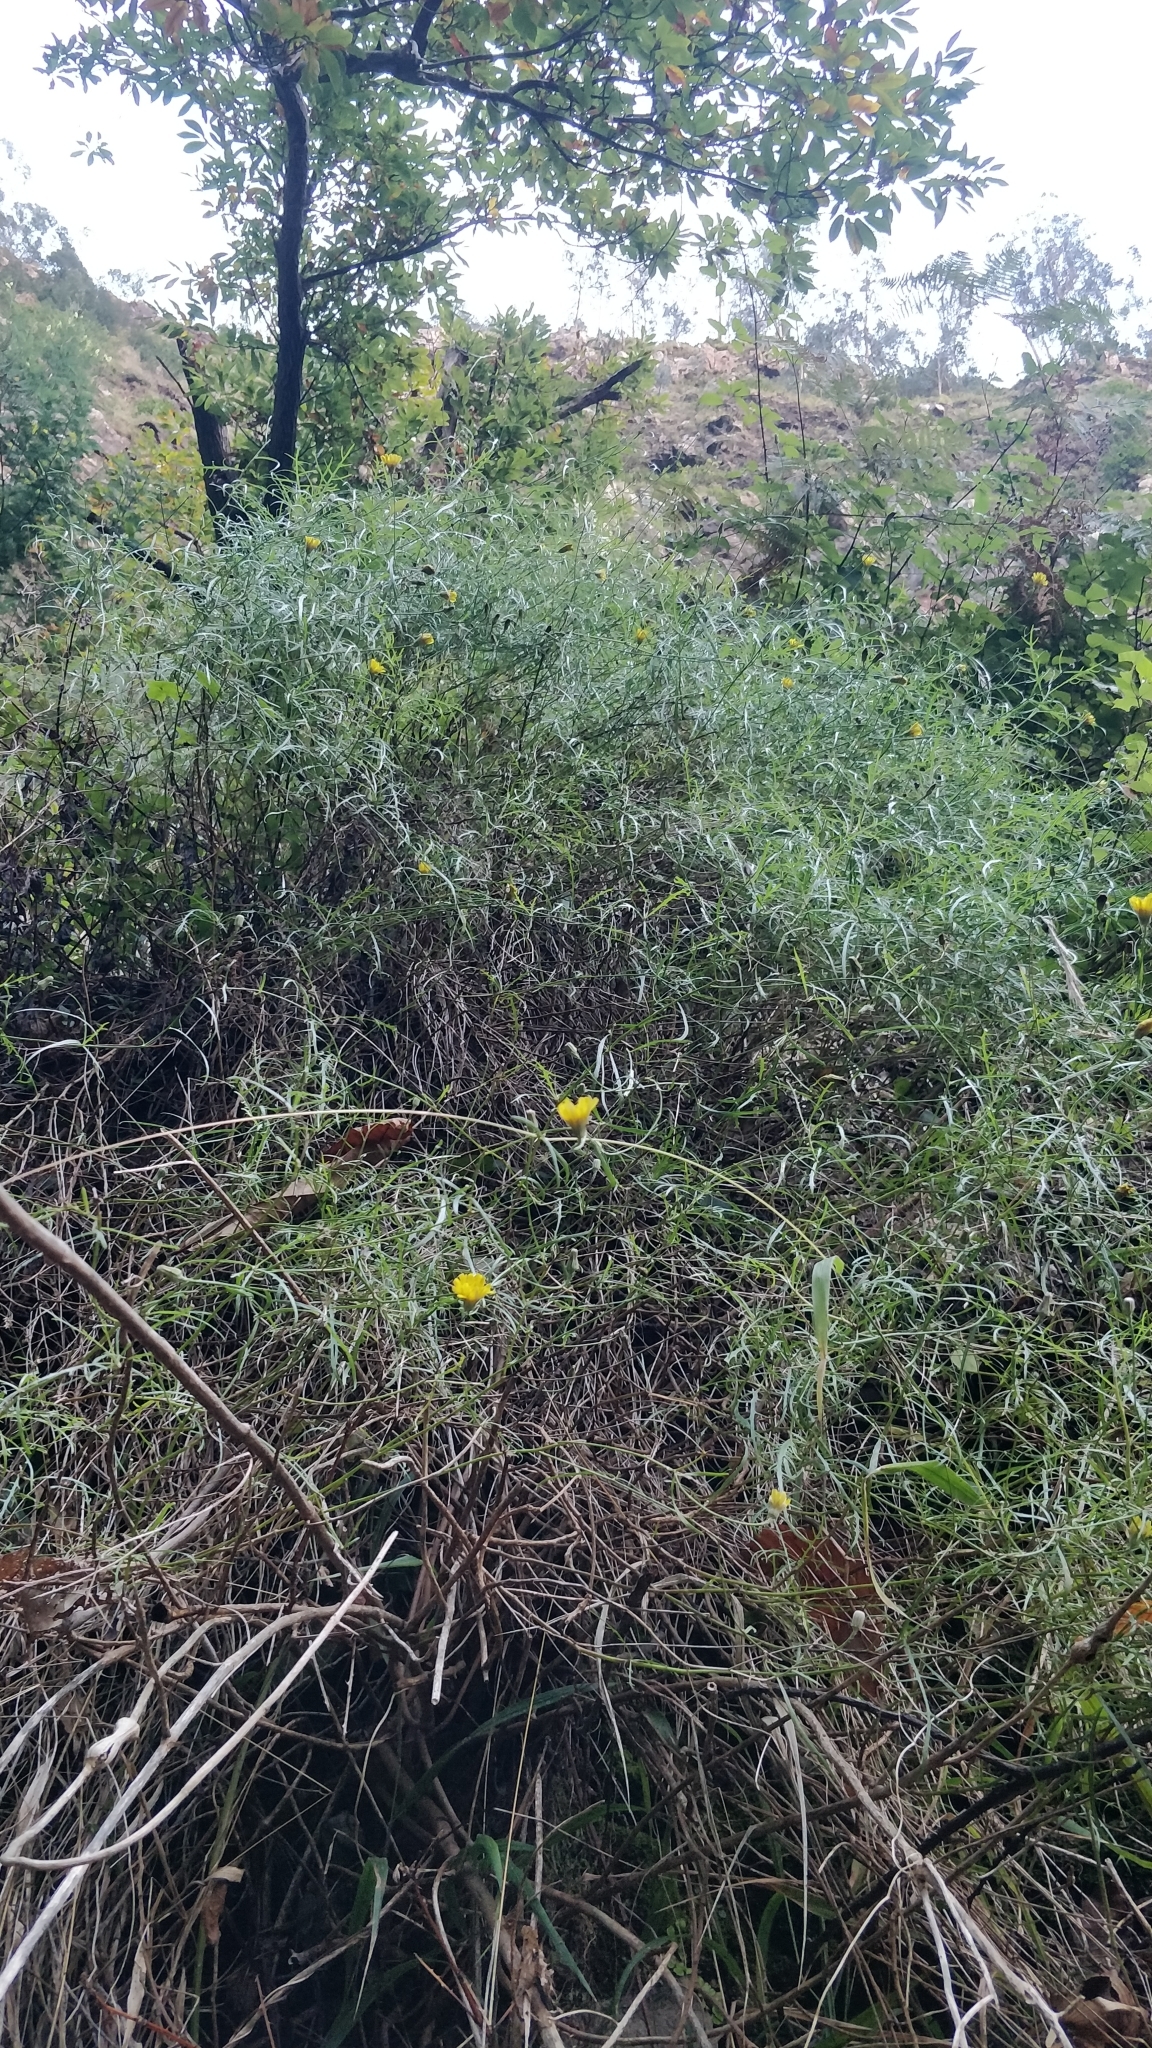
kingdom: Plantae
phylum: Tracheophyta
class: Magnoliopsida
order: Asterales
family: Asteraceae
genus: Tolpis
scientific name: Tolpis succulenta
